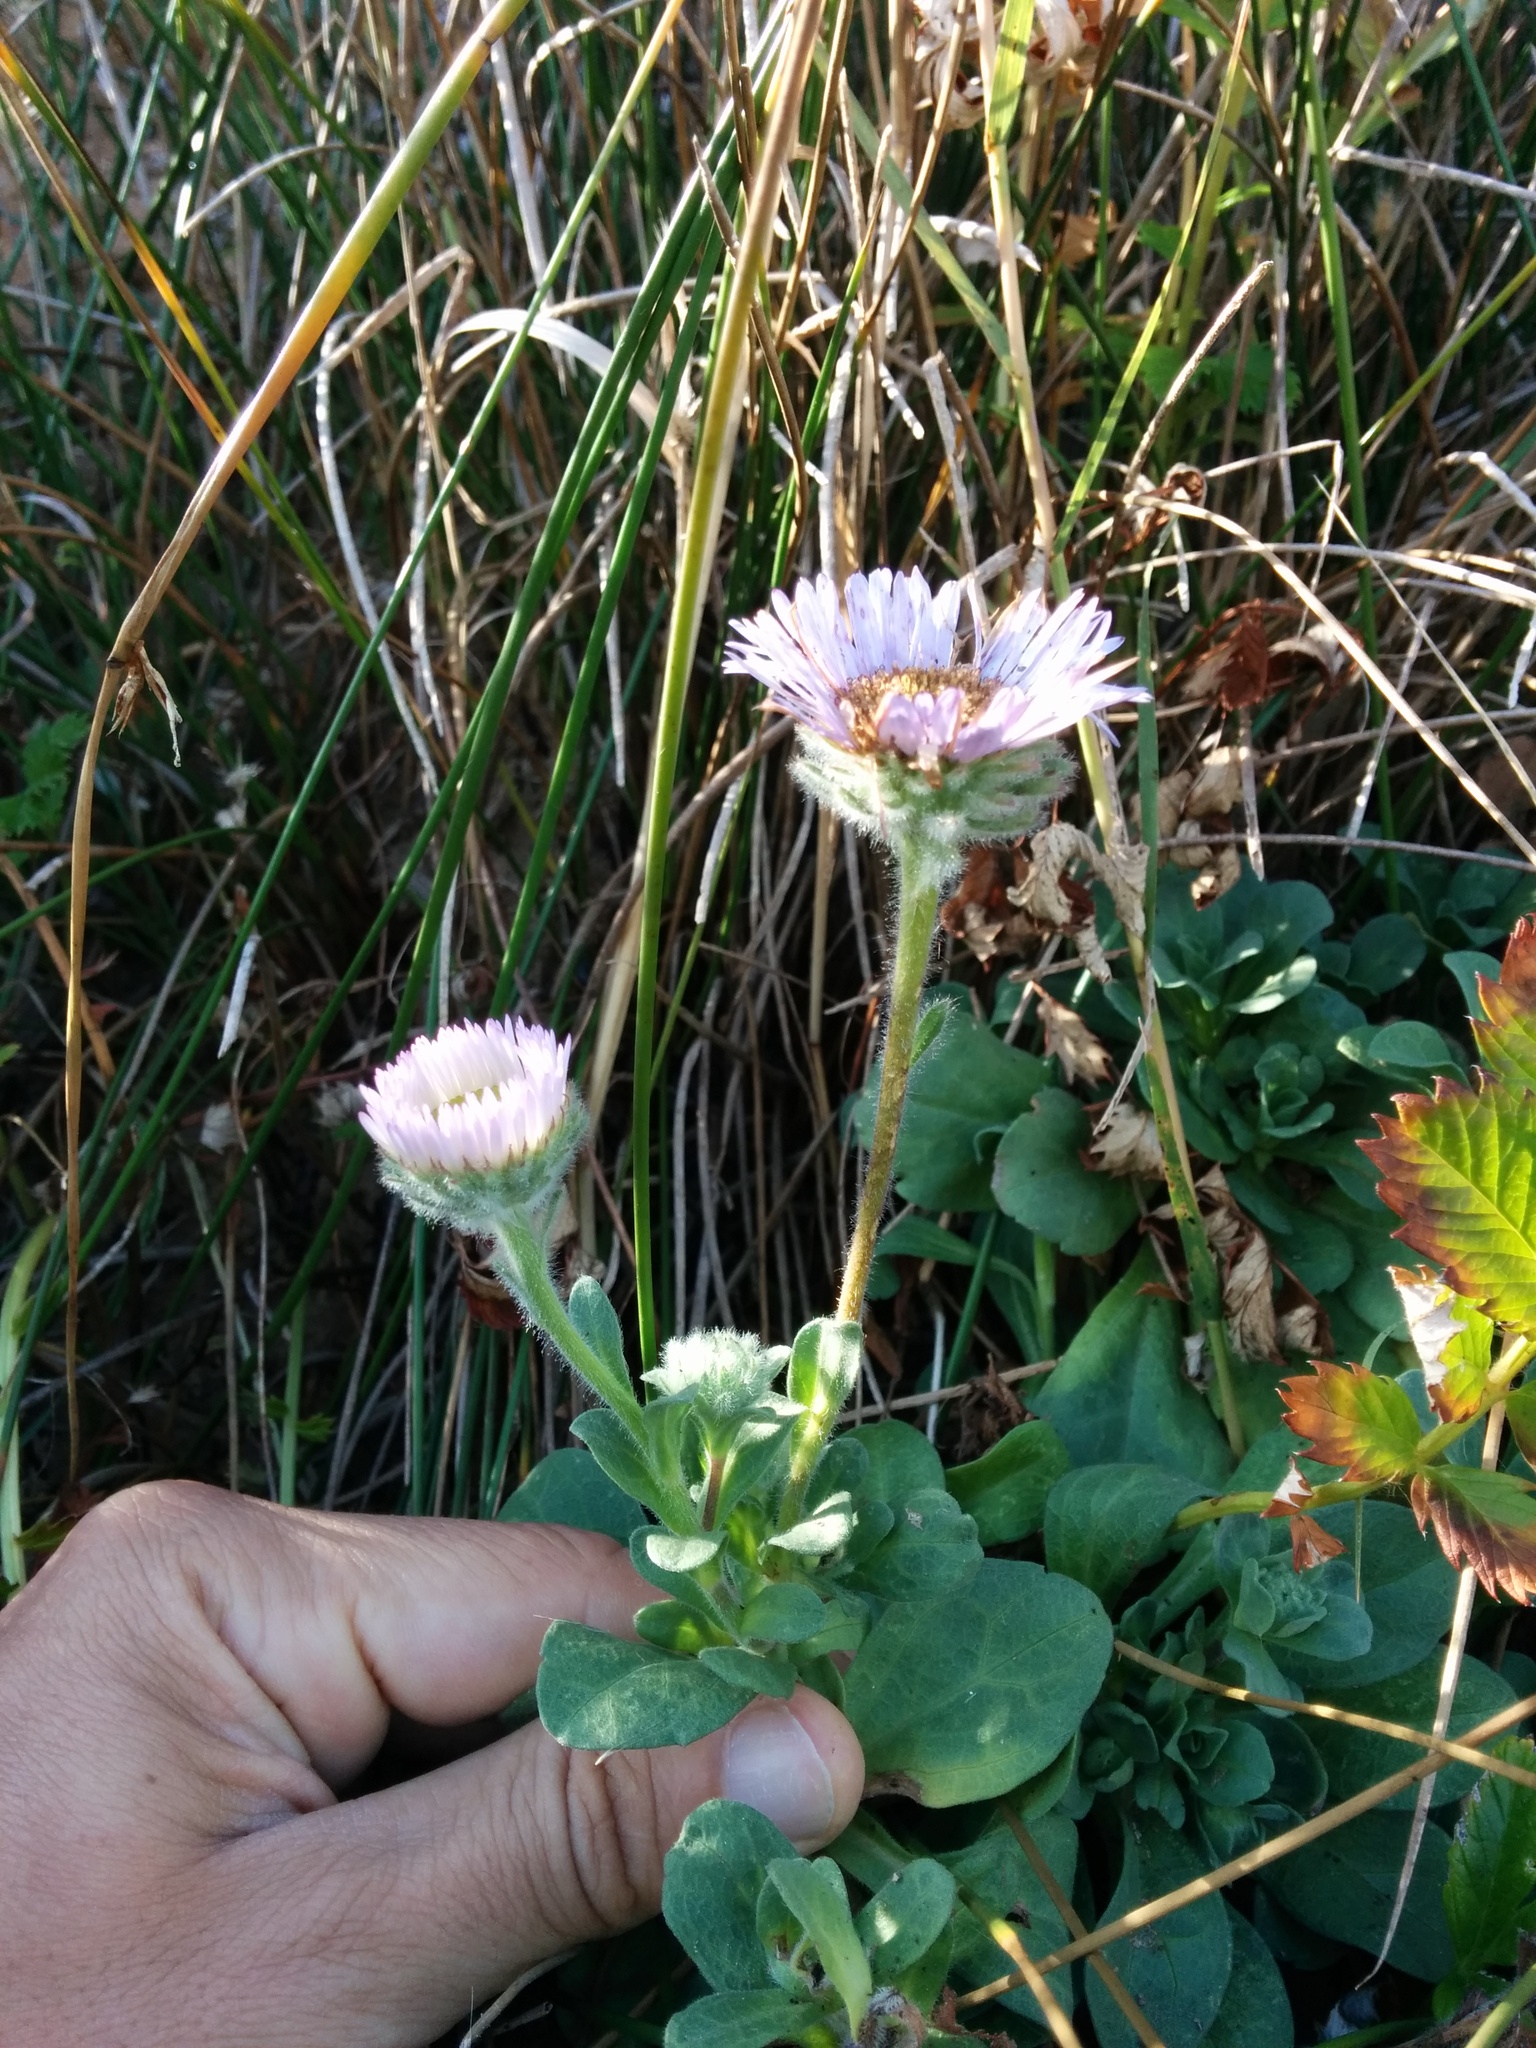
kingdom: Plantae
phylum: Tracheophyta
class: Magnoliopsida
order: Asterales
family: Asteraceae
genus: Erigeron
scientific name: Erigeron glaucus
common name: Seaside daisy
